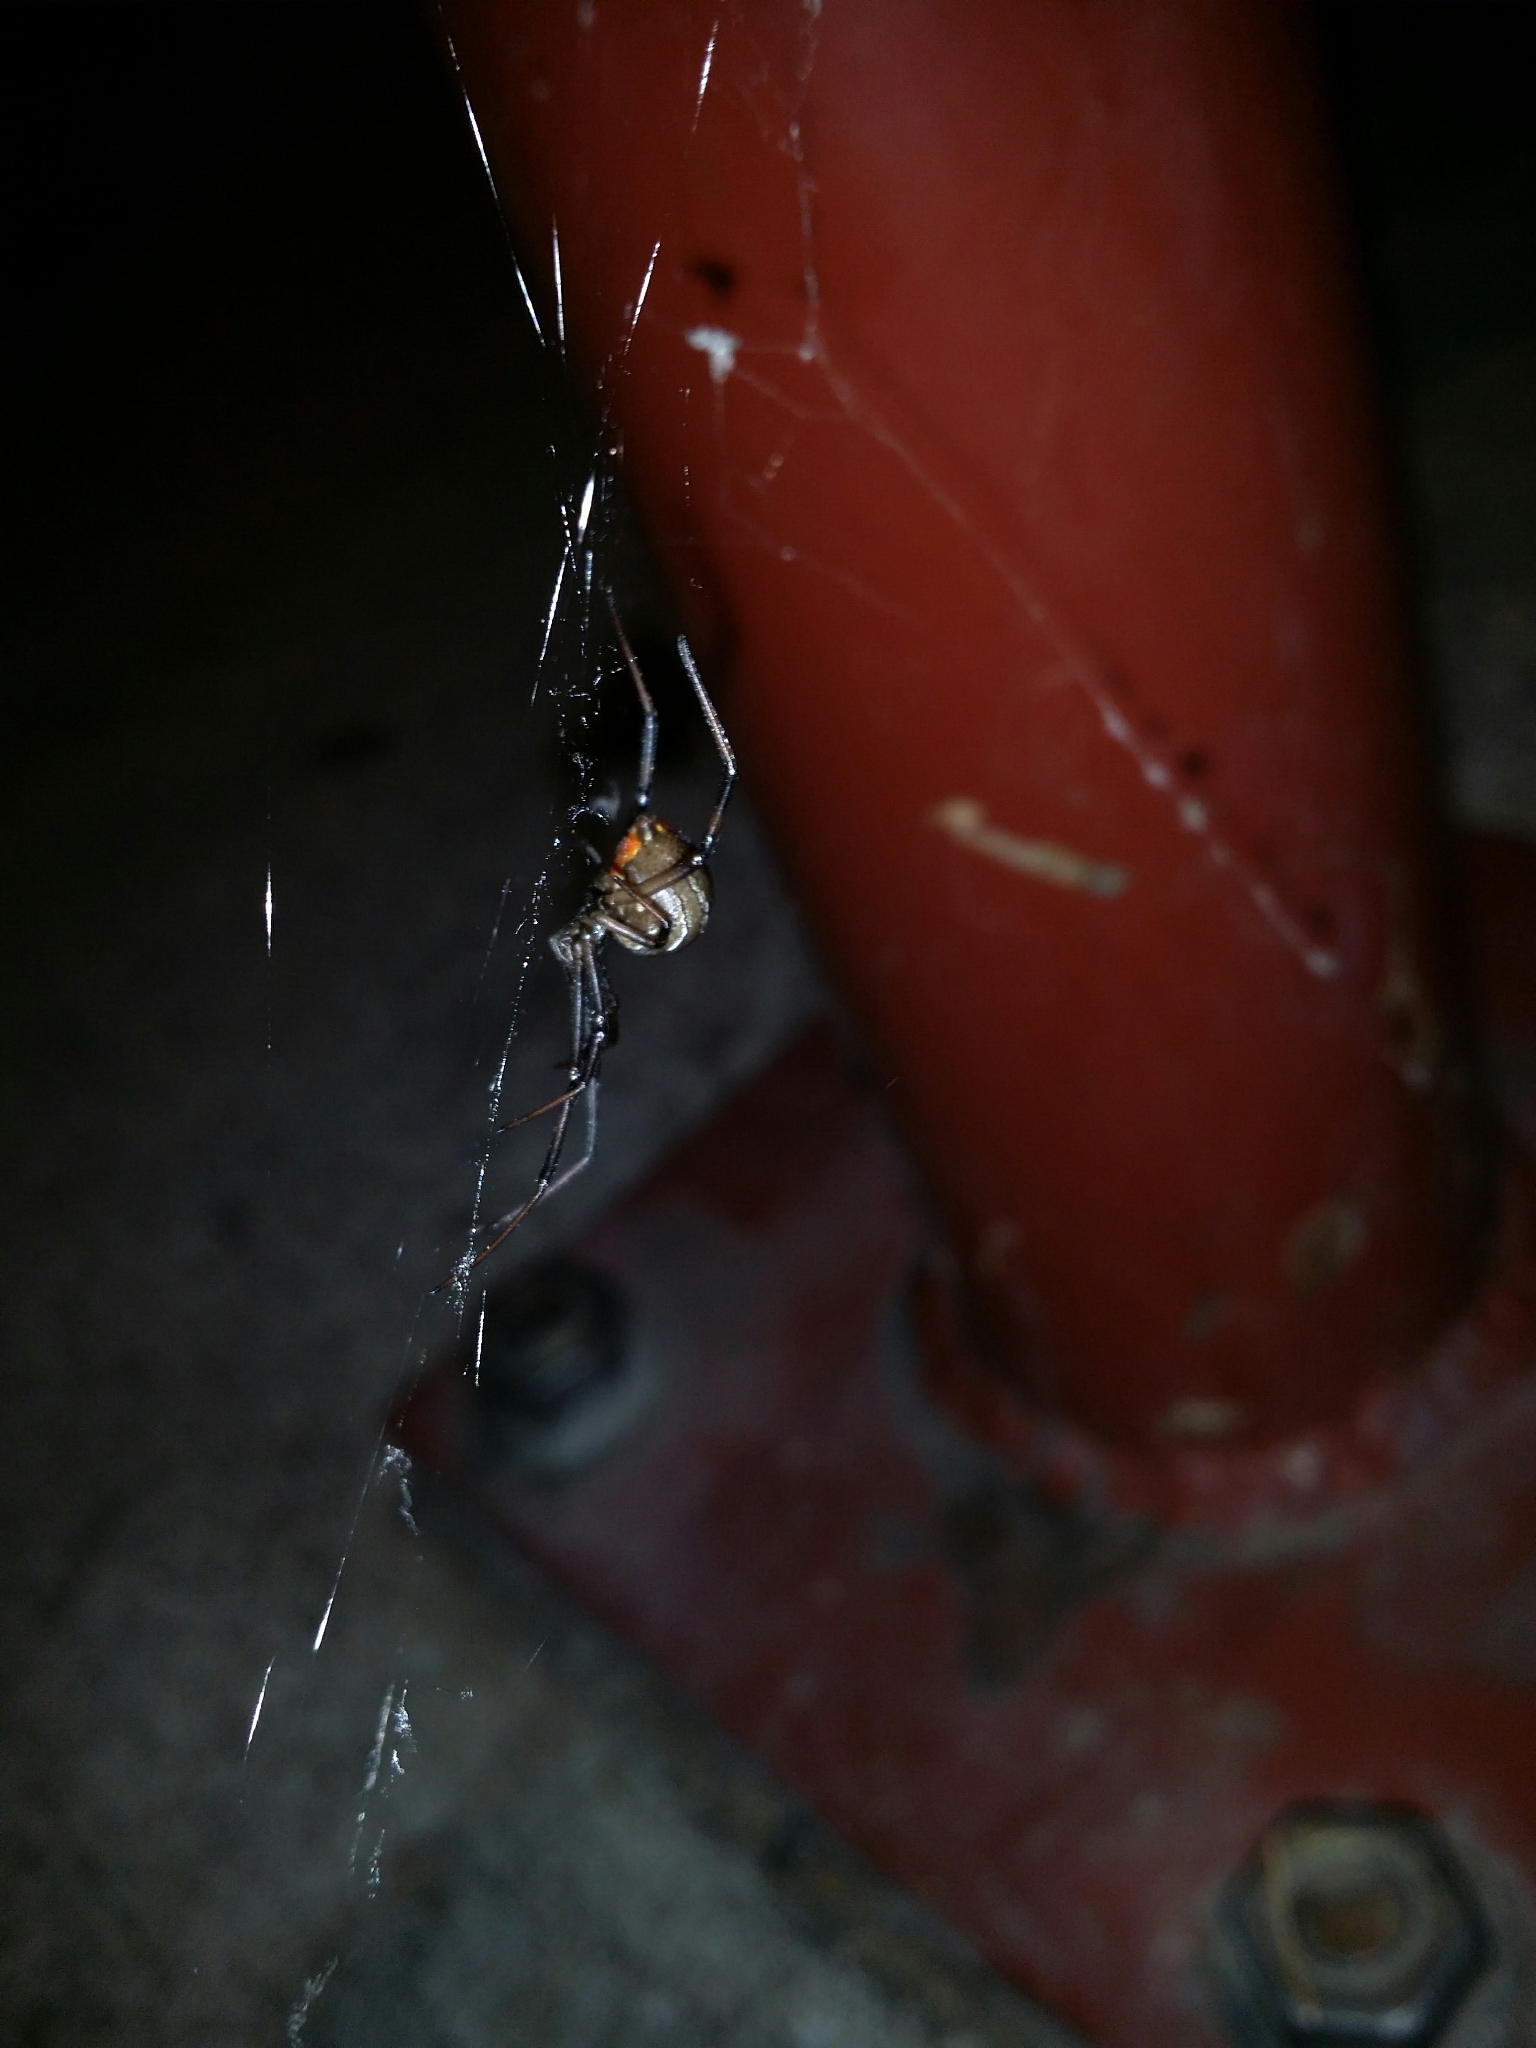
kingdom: Animalia
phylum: Arthropoda
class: Arachnida
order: Araneae
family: Theridiidae
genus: Latrodectus
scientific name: Latrodectus hasselti
